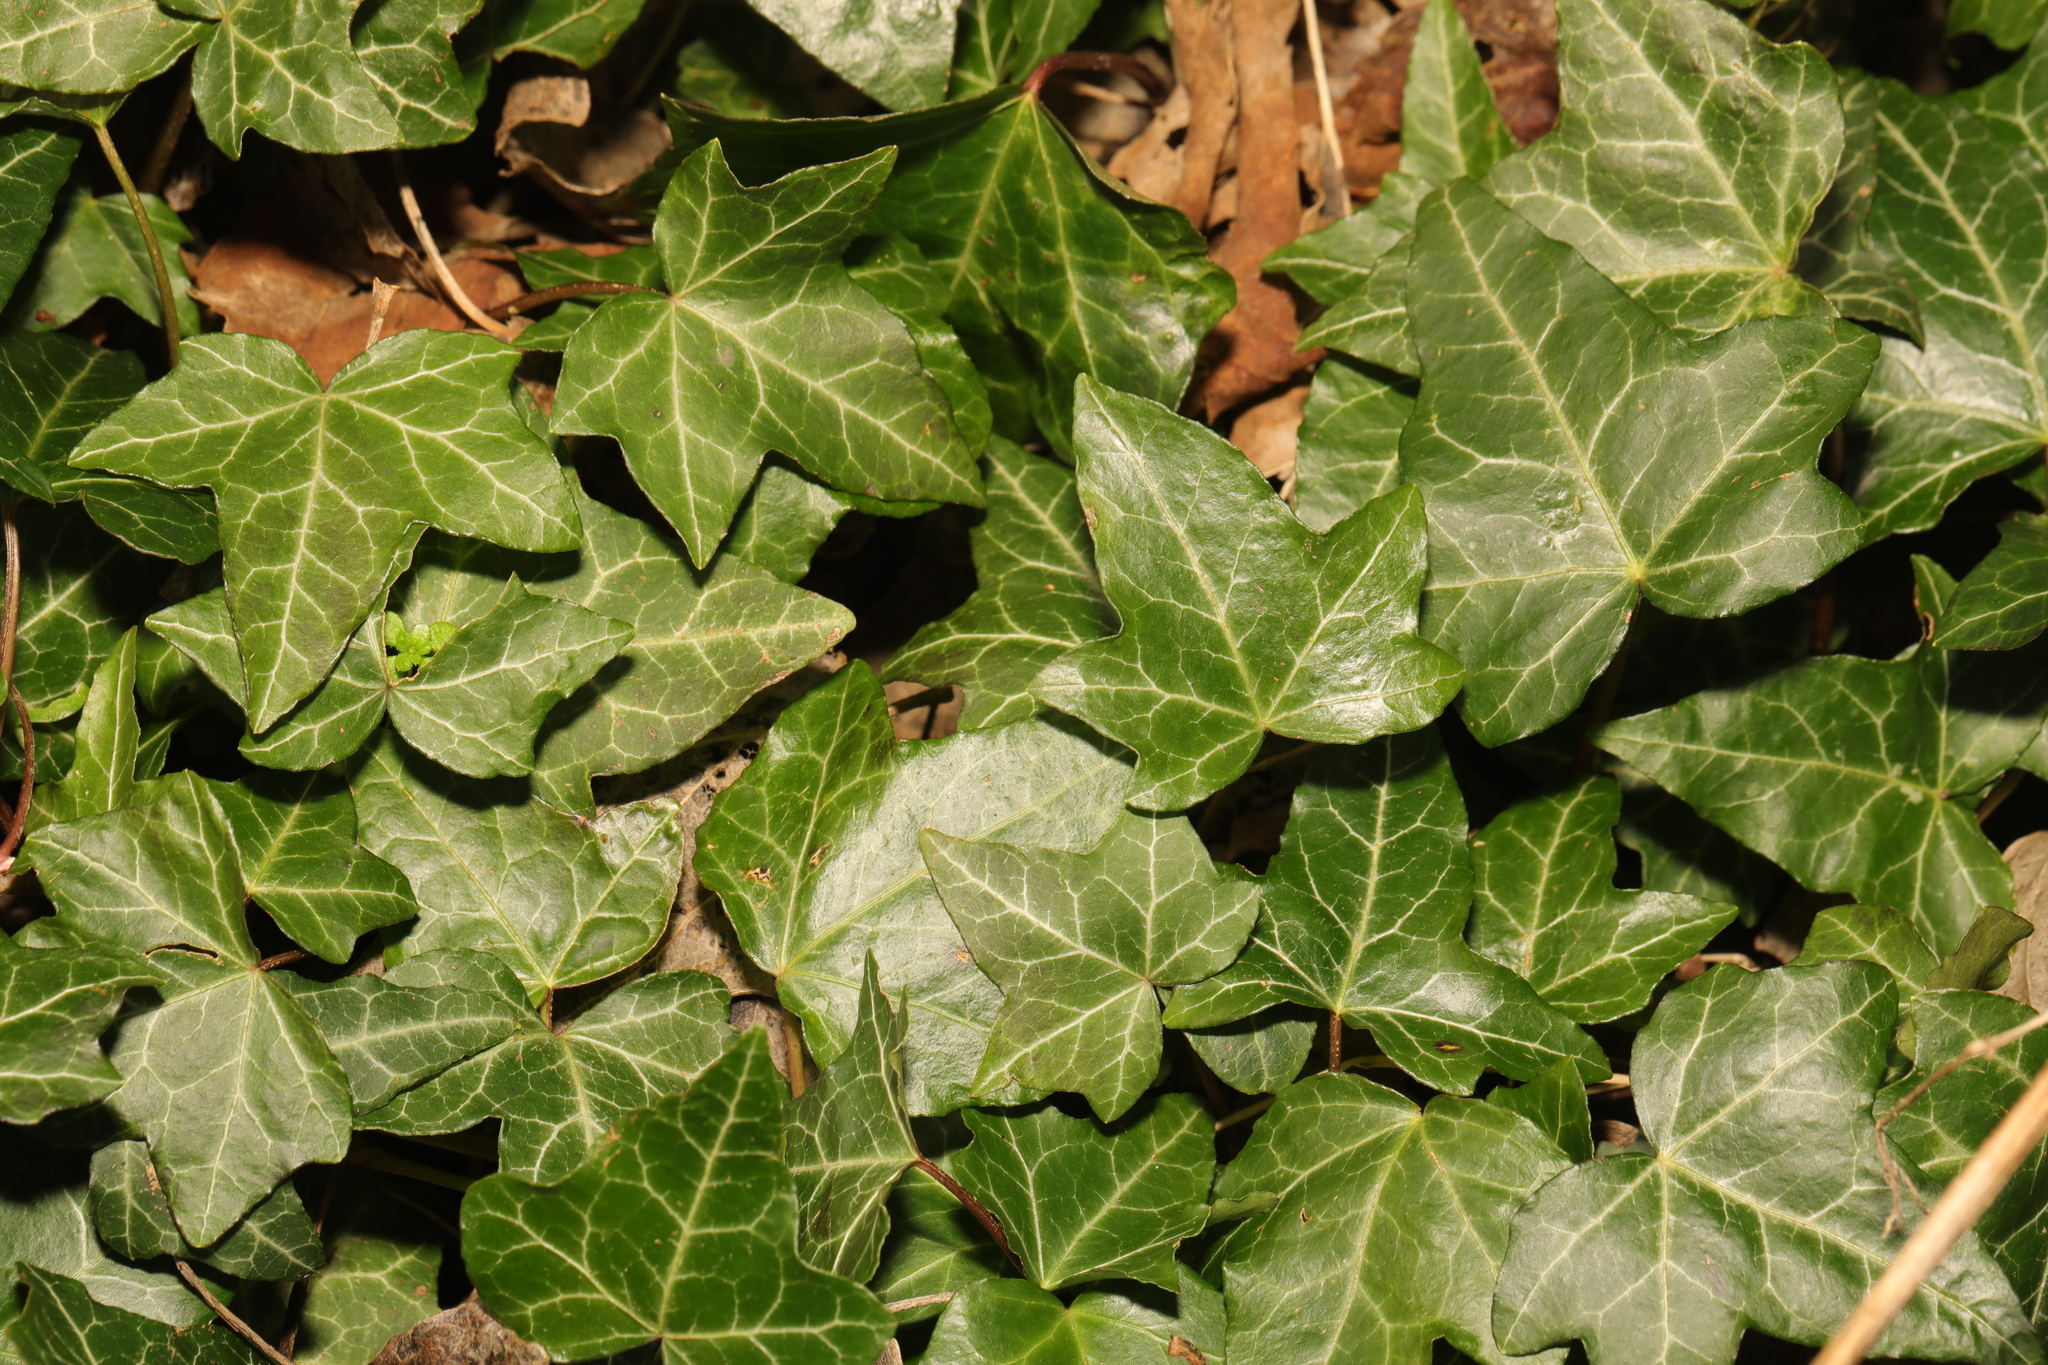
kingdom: Plantae
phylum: Tracheophyta
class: Magnoliopsida
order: Apiales
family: Araliaceae
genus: Hedera
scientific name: Hedera helix
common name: Ivy
